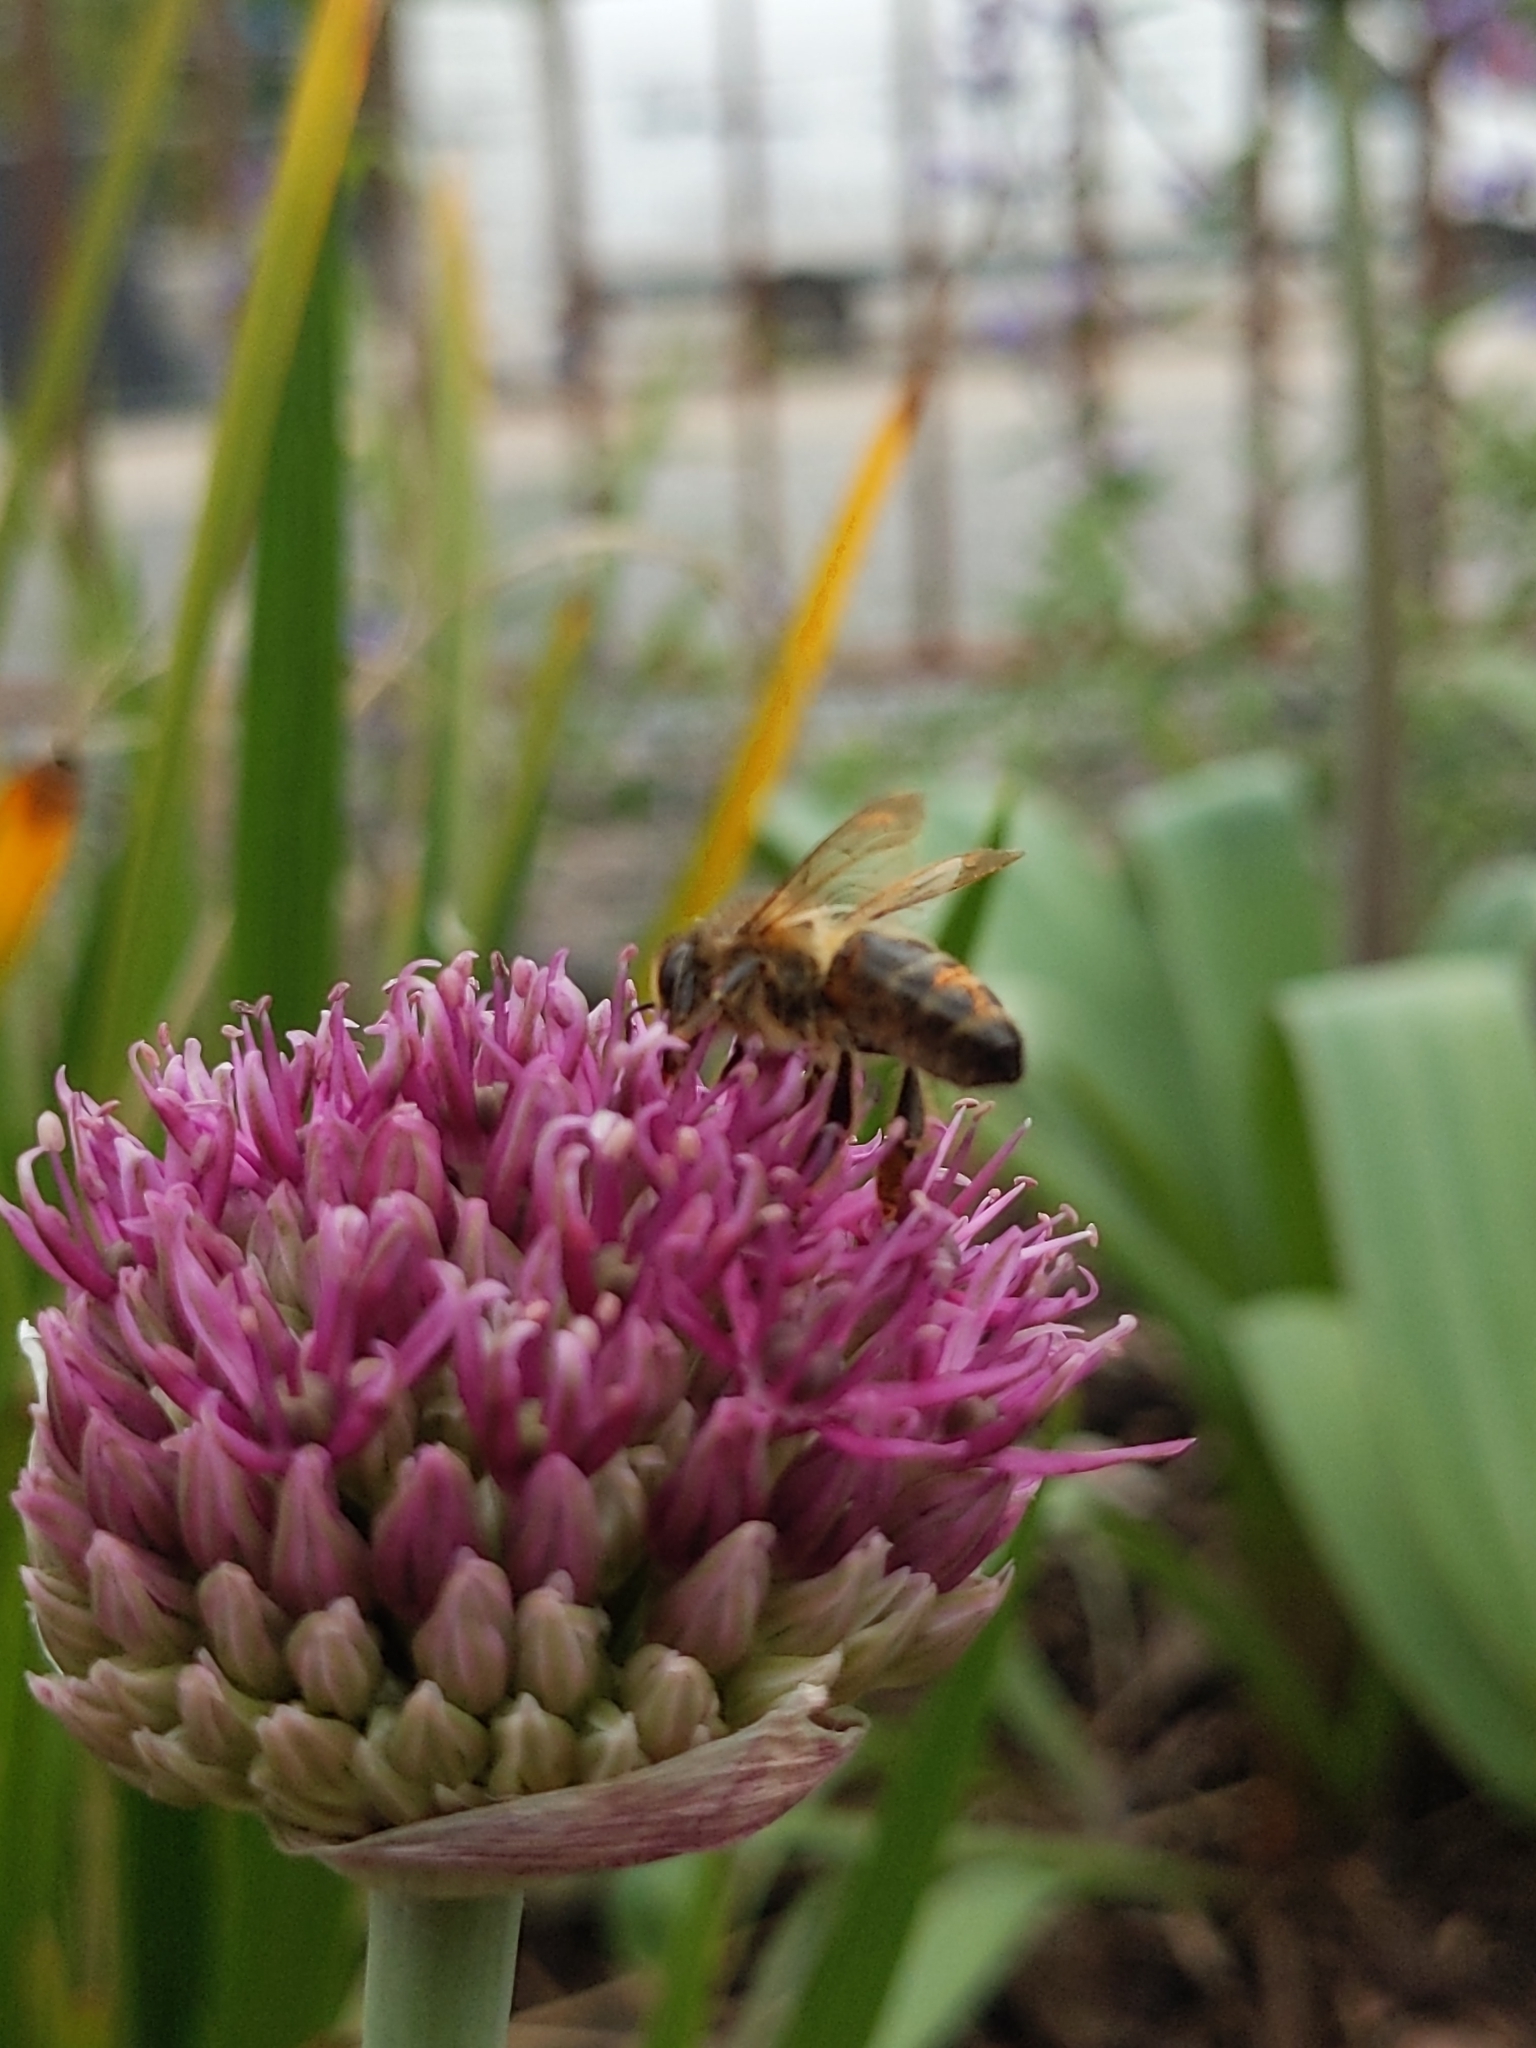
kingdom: Animalia
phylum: Arthropoda
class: Insecta
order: Hymenoptera
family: Apidae
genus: Apis
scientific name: Apis mellifera
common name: Honey bee
